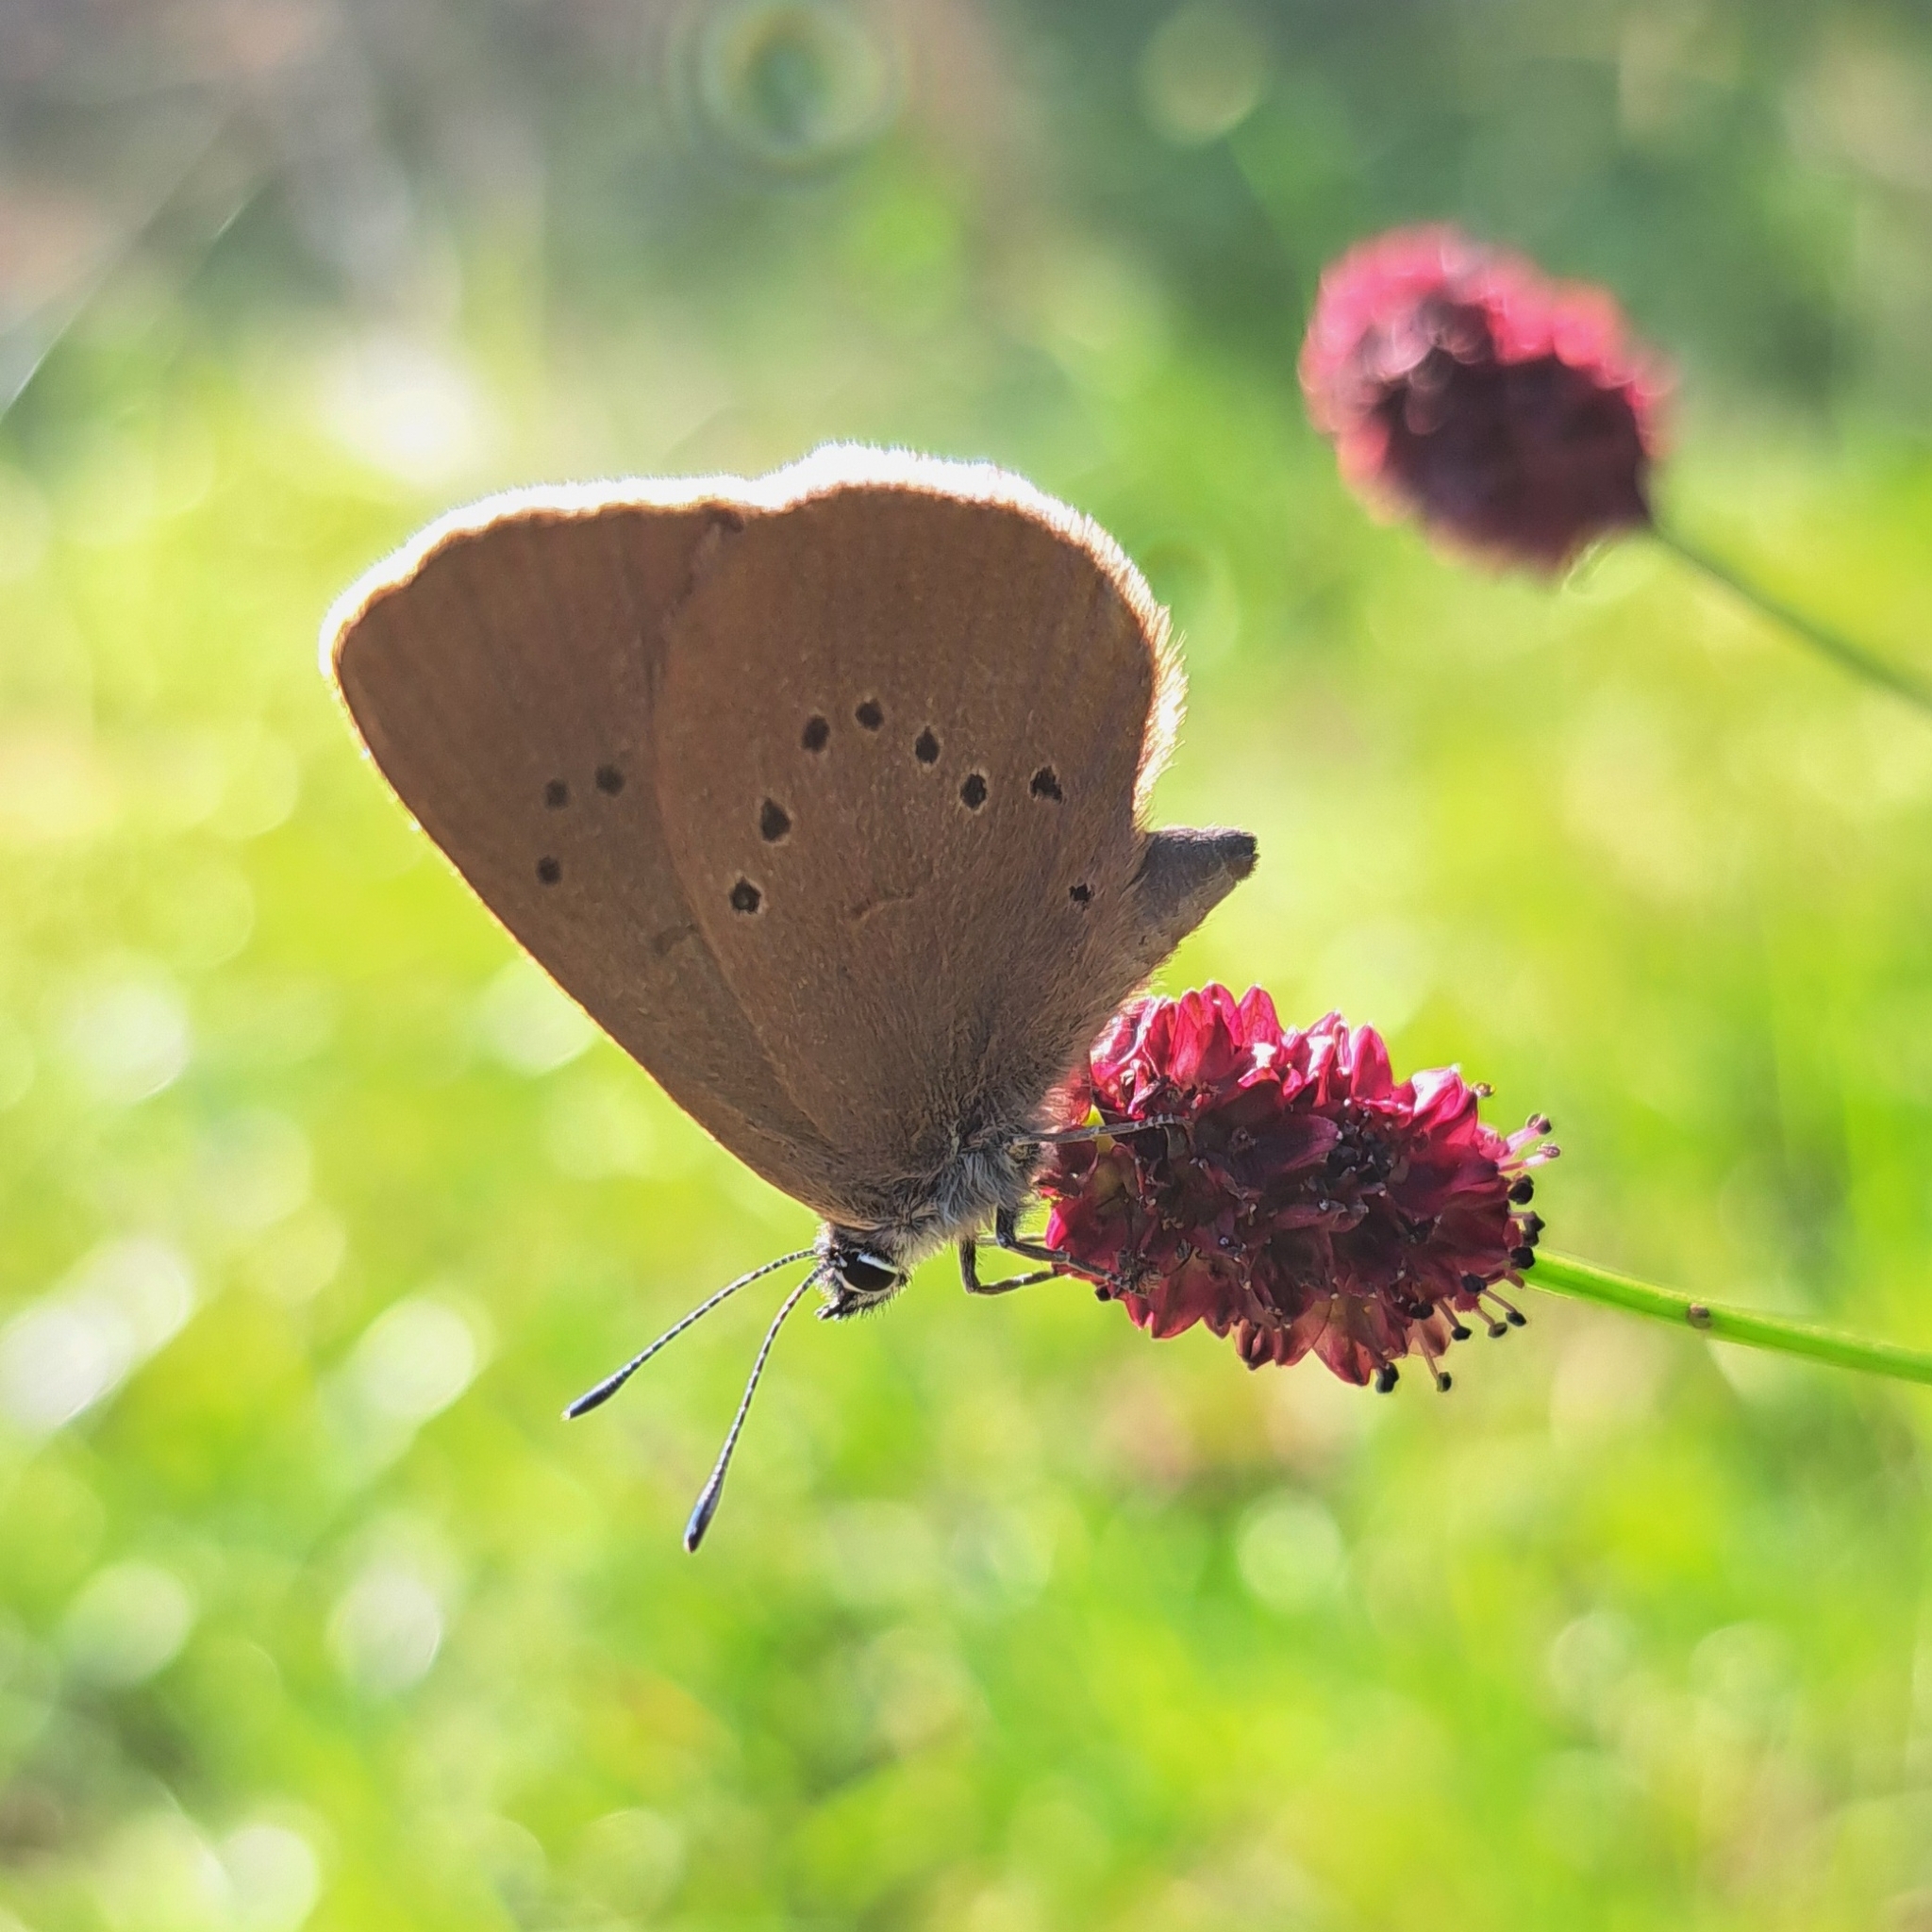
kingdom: Animalia
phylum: Arthropoda
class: Insecta
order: Lepidoptera
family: Lycaenidae
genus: Maculinea
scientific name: Maculinea nausithous
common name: Dusky large blue
